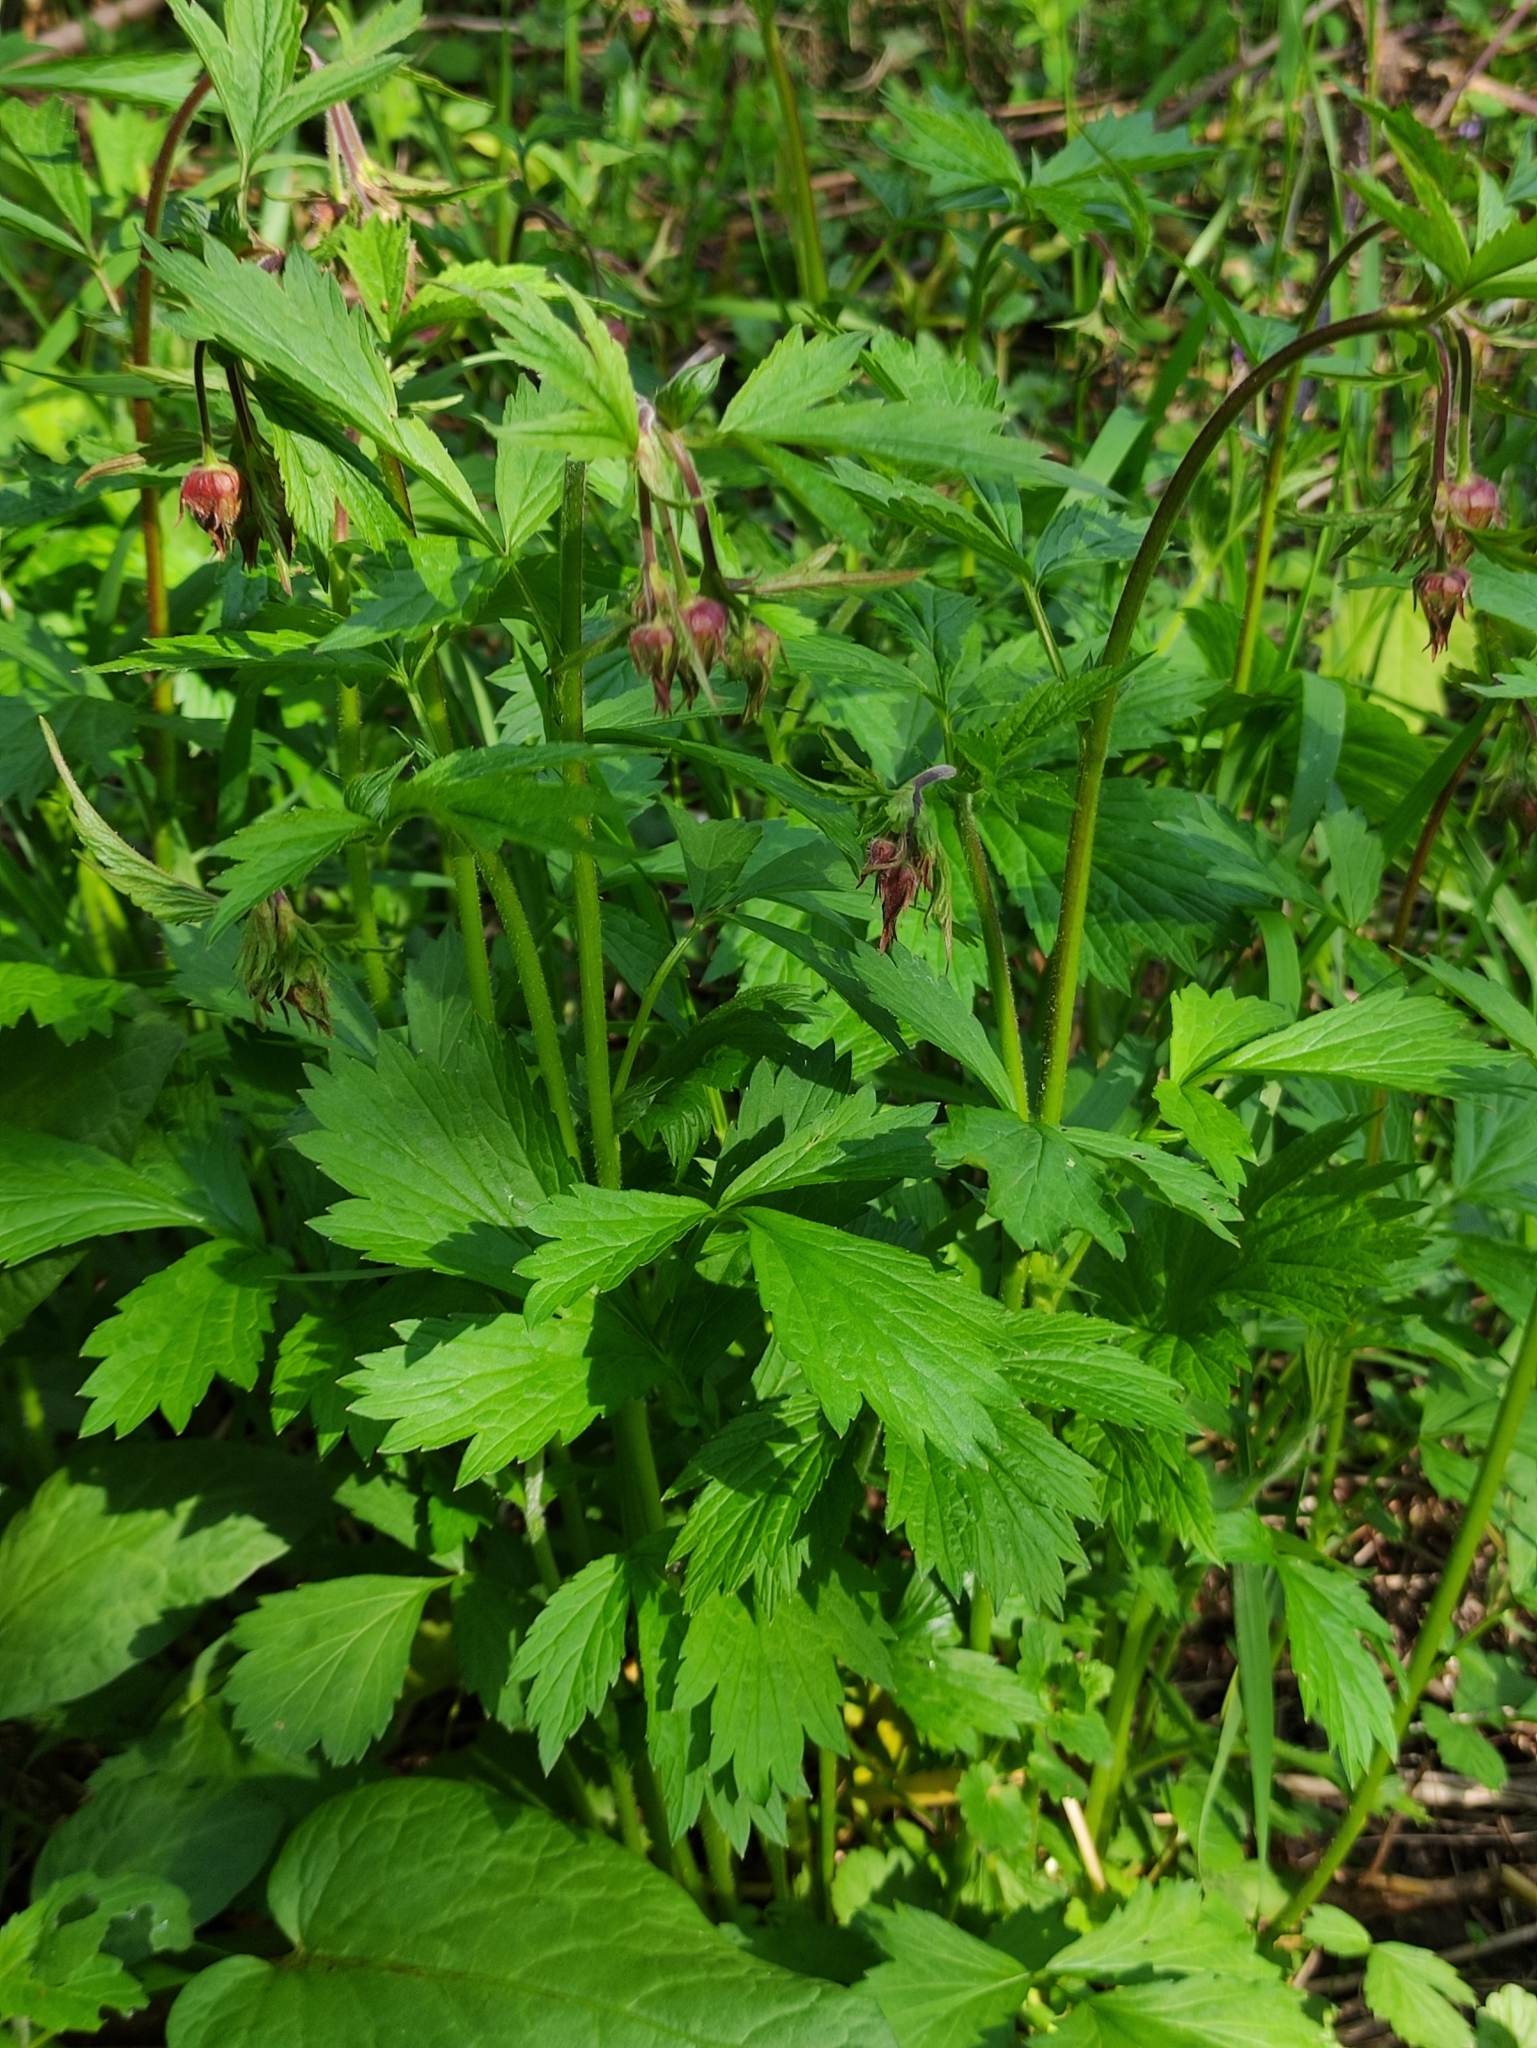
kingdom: Plantae
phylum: Tracheophyta
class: Magnoliopsida
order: Rosales
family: Rosaceae
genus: Geum
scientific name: Geum rivale
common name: Water avens
